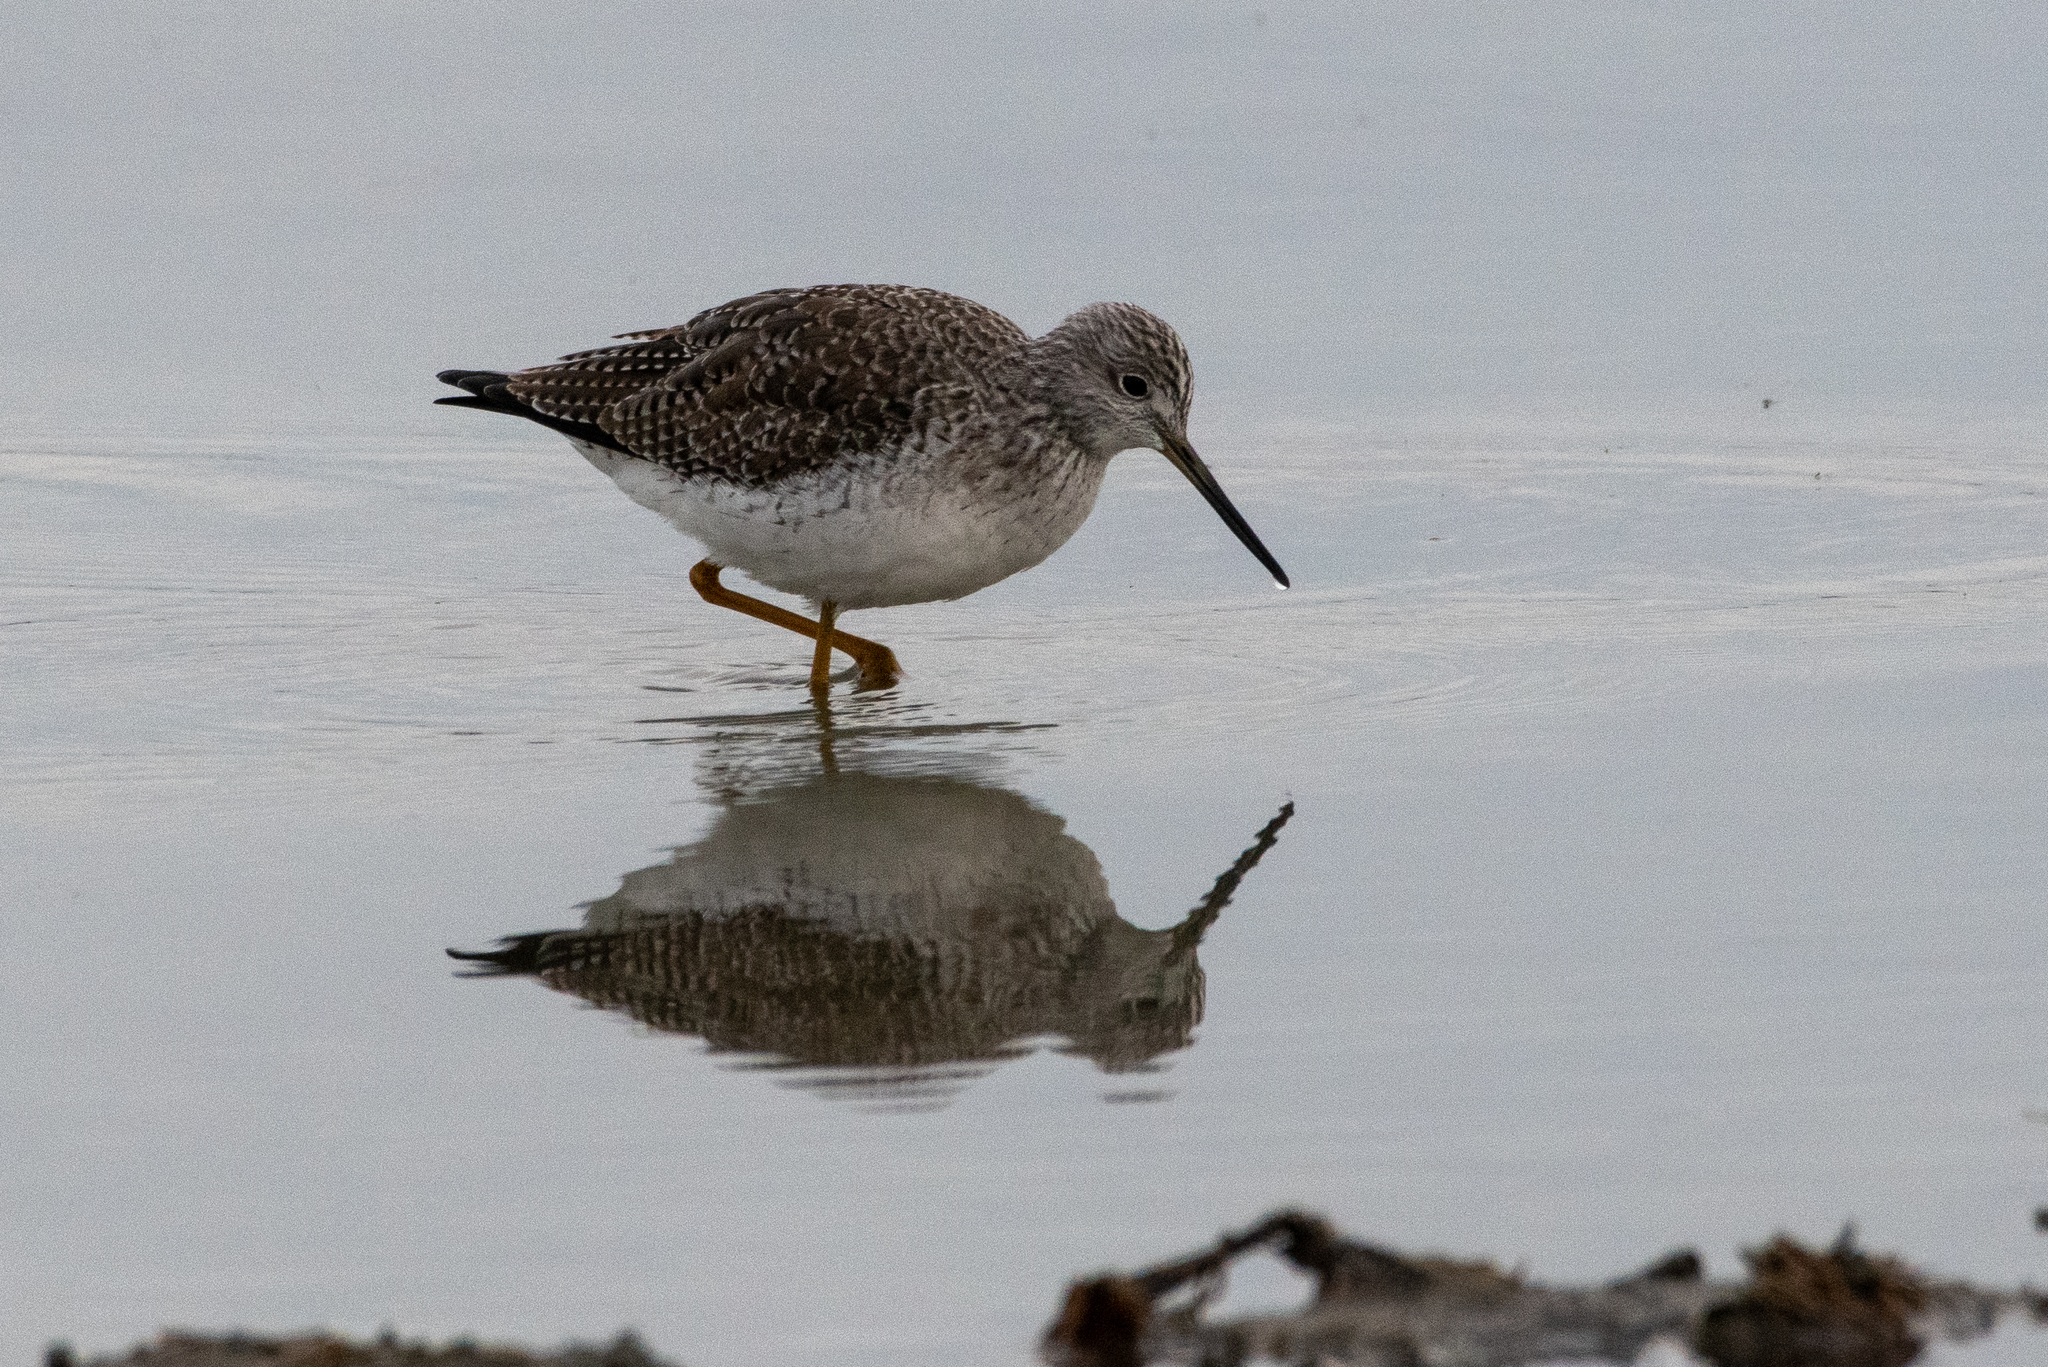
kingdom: Animalia
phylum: Chordata
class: Aves
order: Charadriiformes
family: Scolopacidae
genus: Tringa
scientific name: Tringa melanoleuca
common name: Greater yellowlegs
